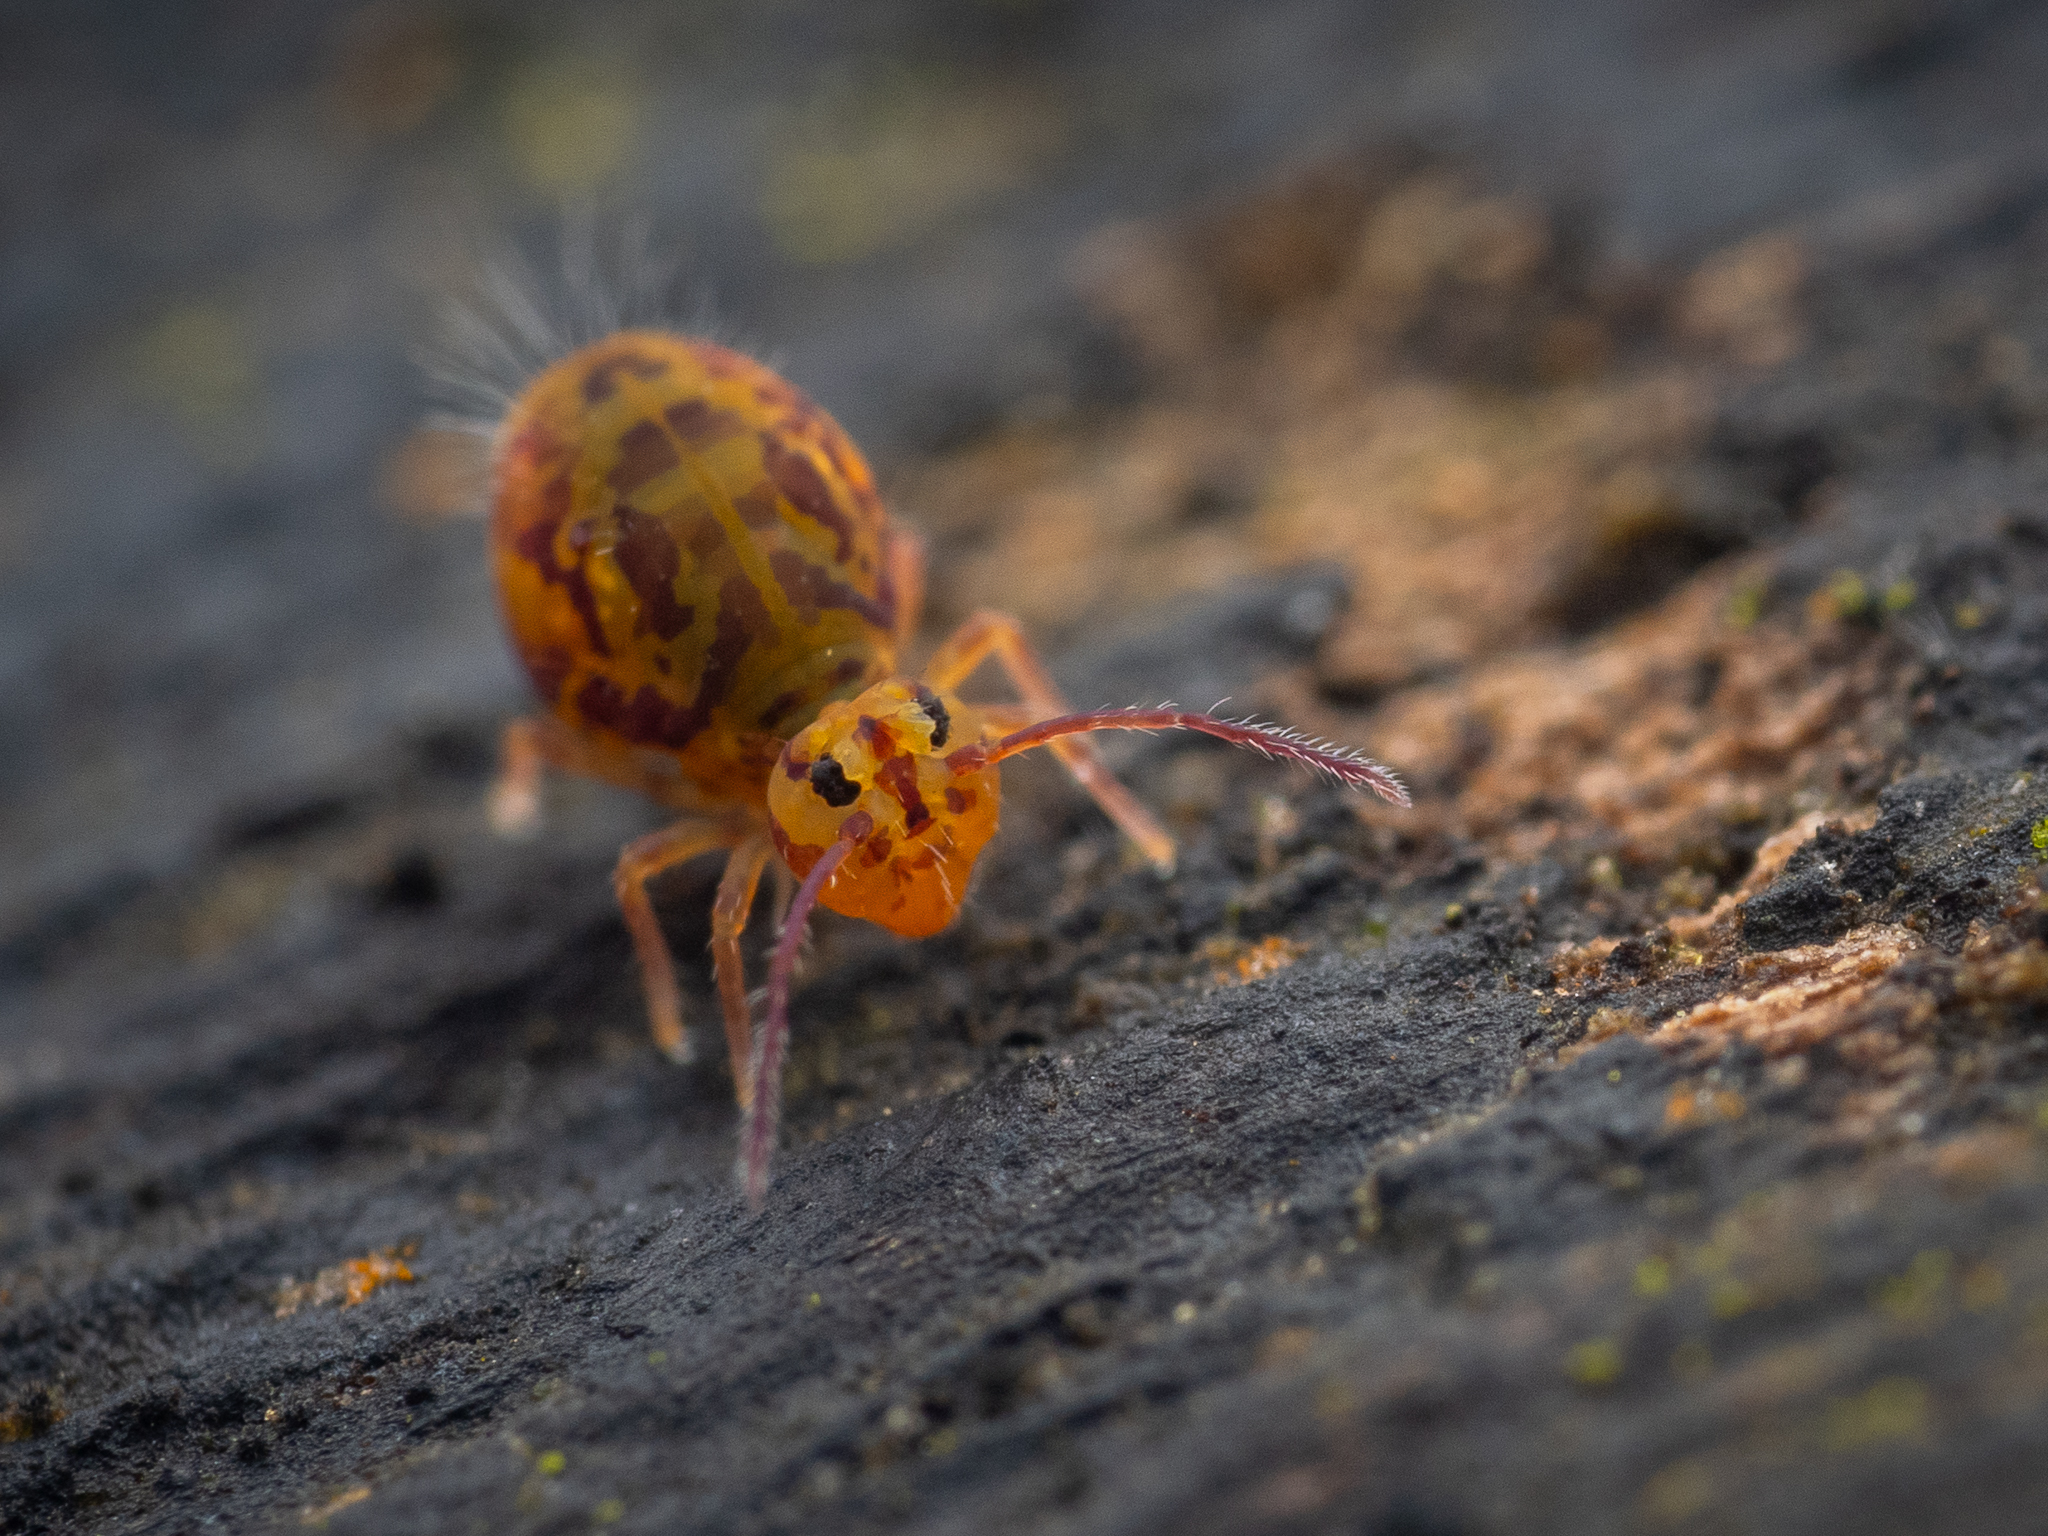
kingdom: Animalia
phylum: Arthropoda
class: Collembola
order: Symphypleona
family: Dicyrtomidae
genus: Dicyrtomina
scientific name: Dicyrtomina ornata
